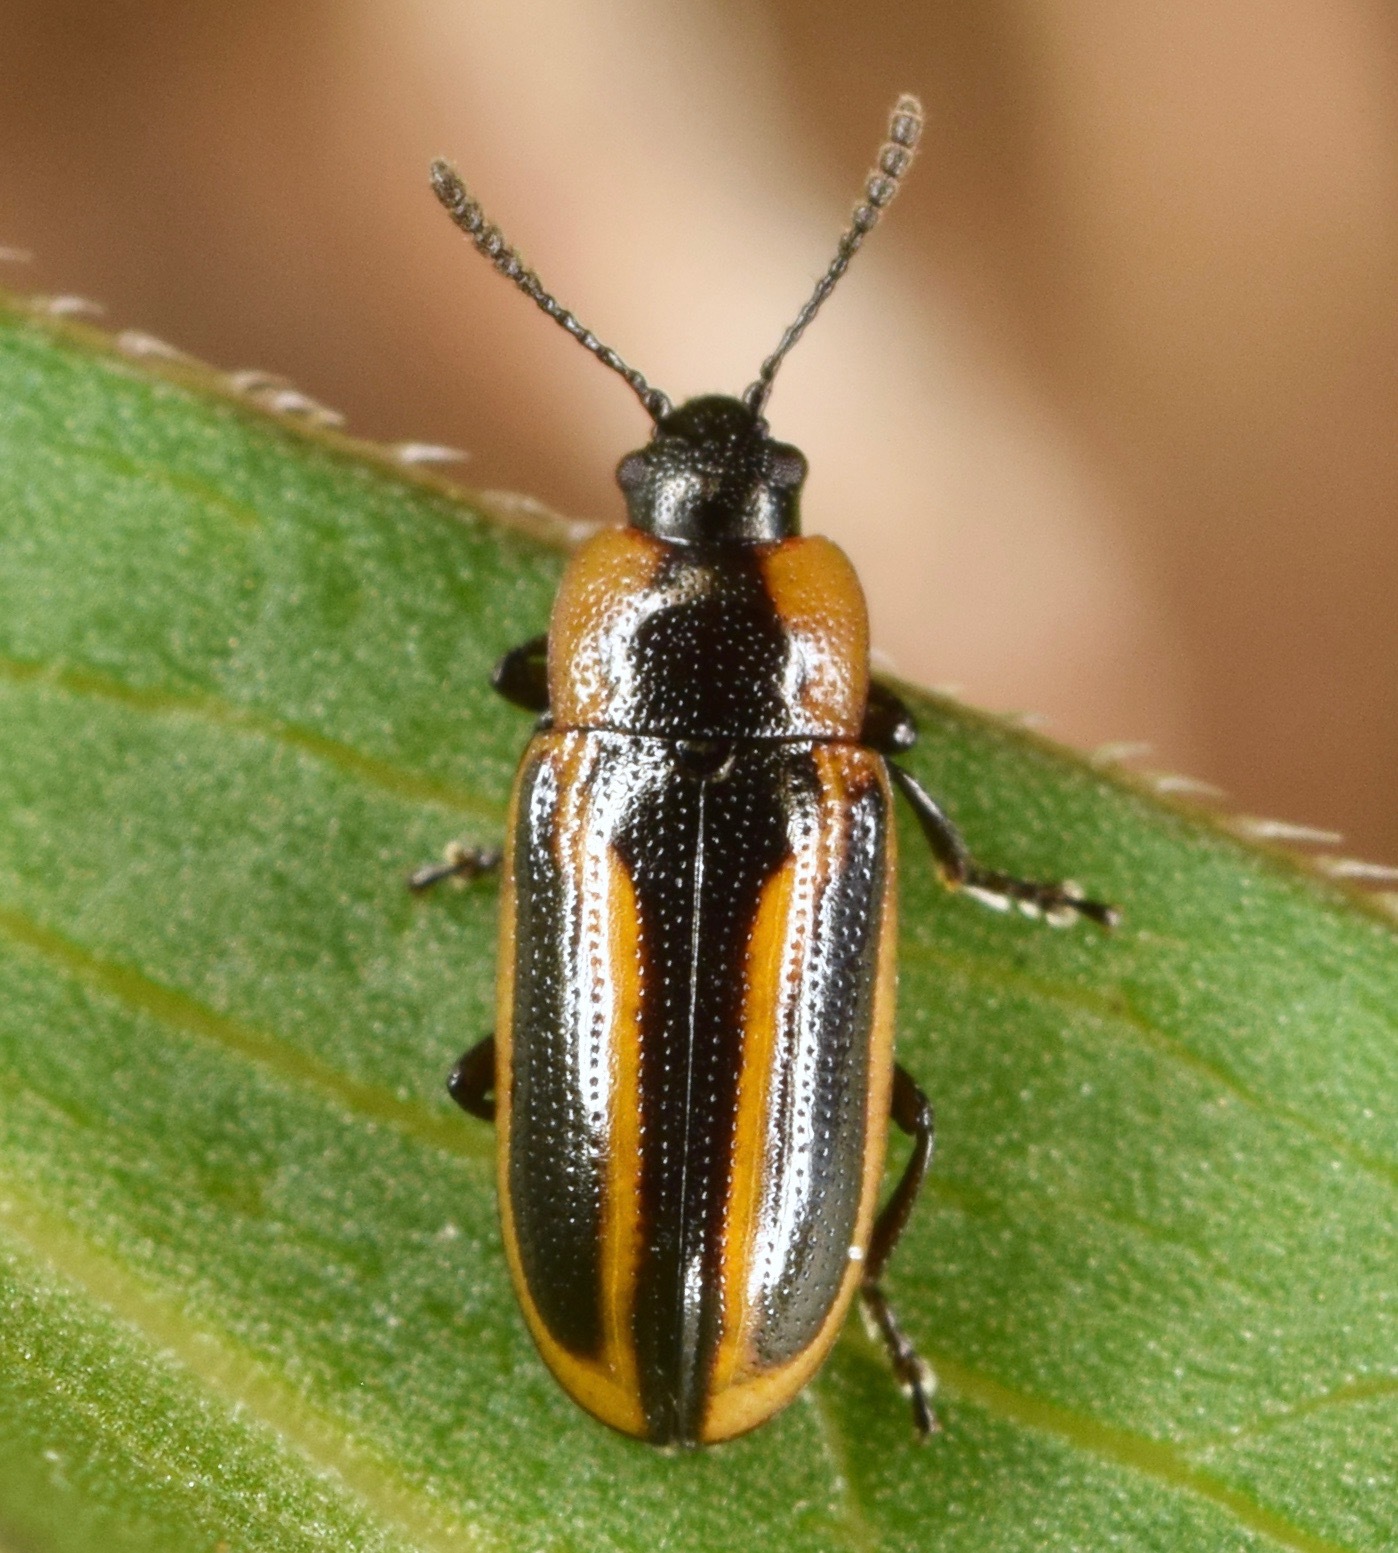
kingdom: Animalia
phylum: Arthropoda
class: Insecta
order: Coleoptera
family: Chrysomelidae
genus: Prasocuris
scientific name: Prasocuris vittata
